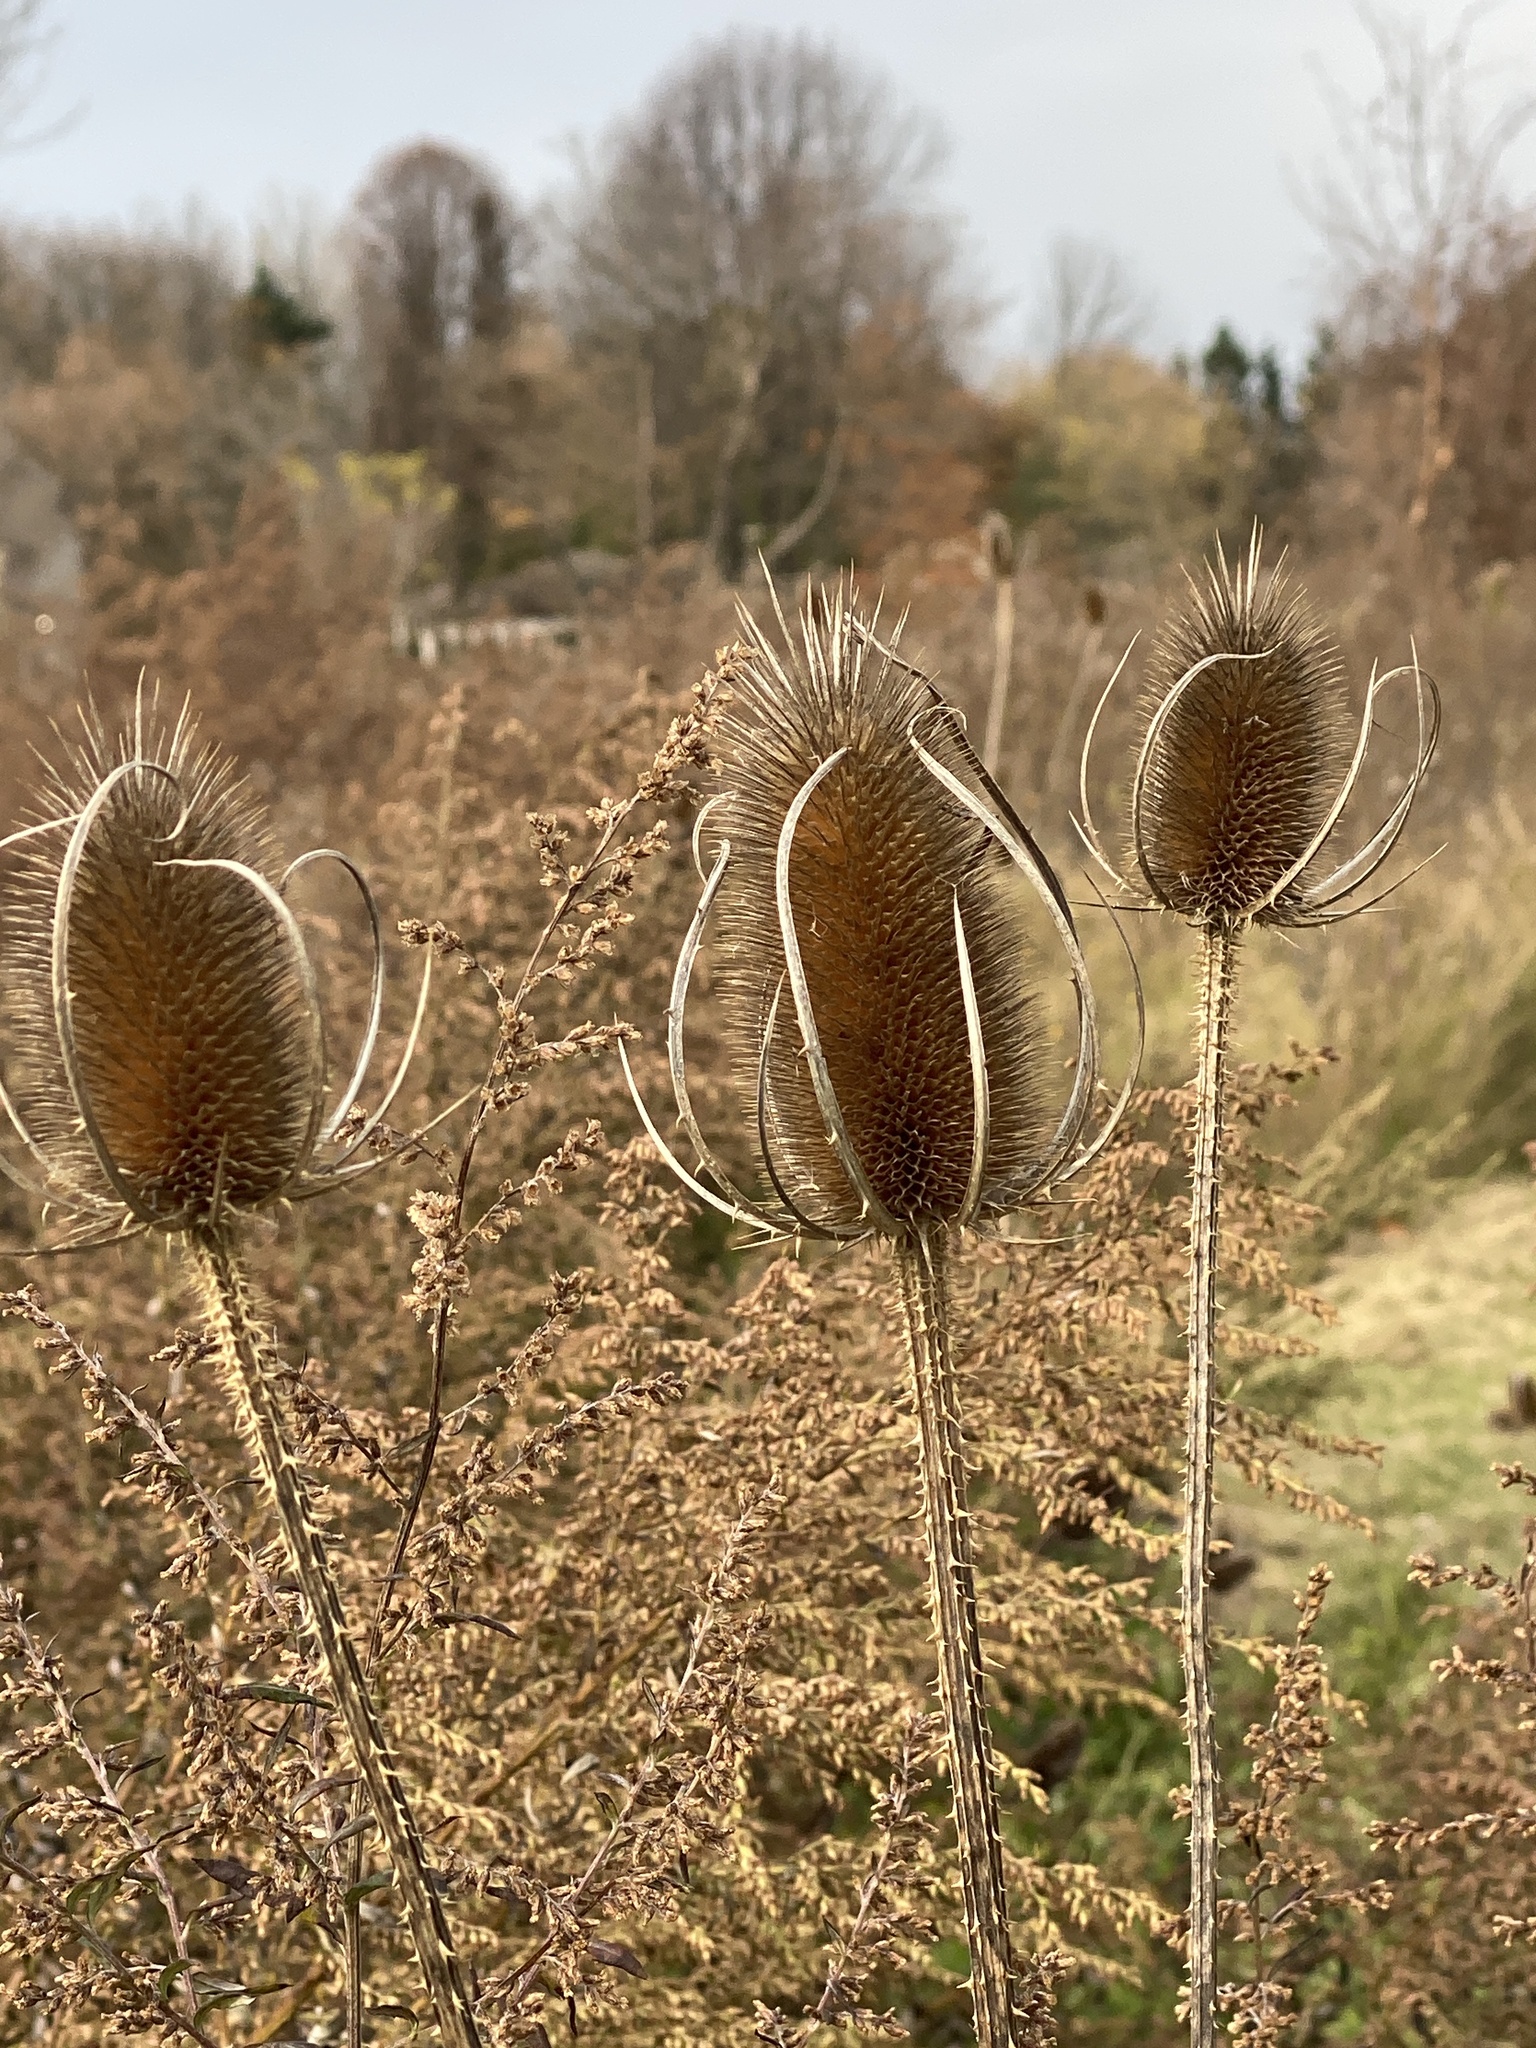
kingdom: Plantae
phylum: Tracheophyta
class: Magnoliopsida
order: Dipsacales
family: Caprifoliaceae
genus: Dipsacus
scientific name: Dipsacus fullonum
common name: Teasel
